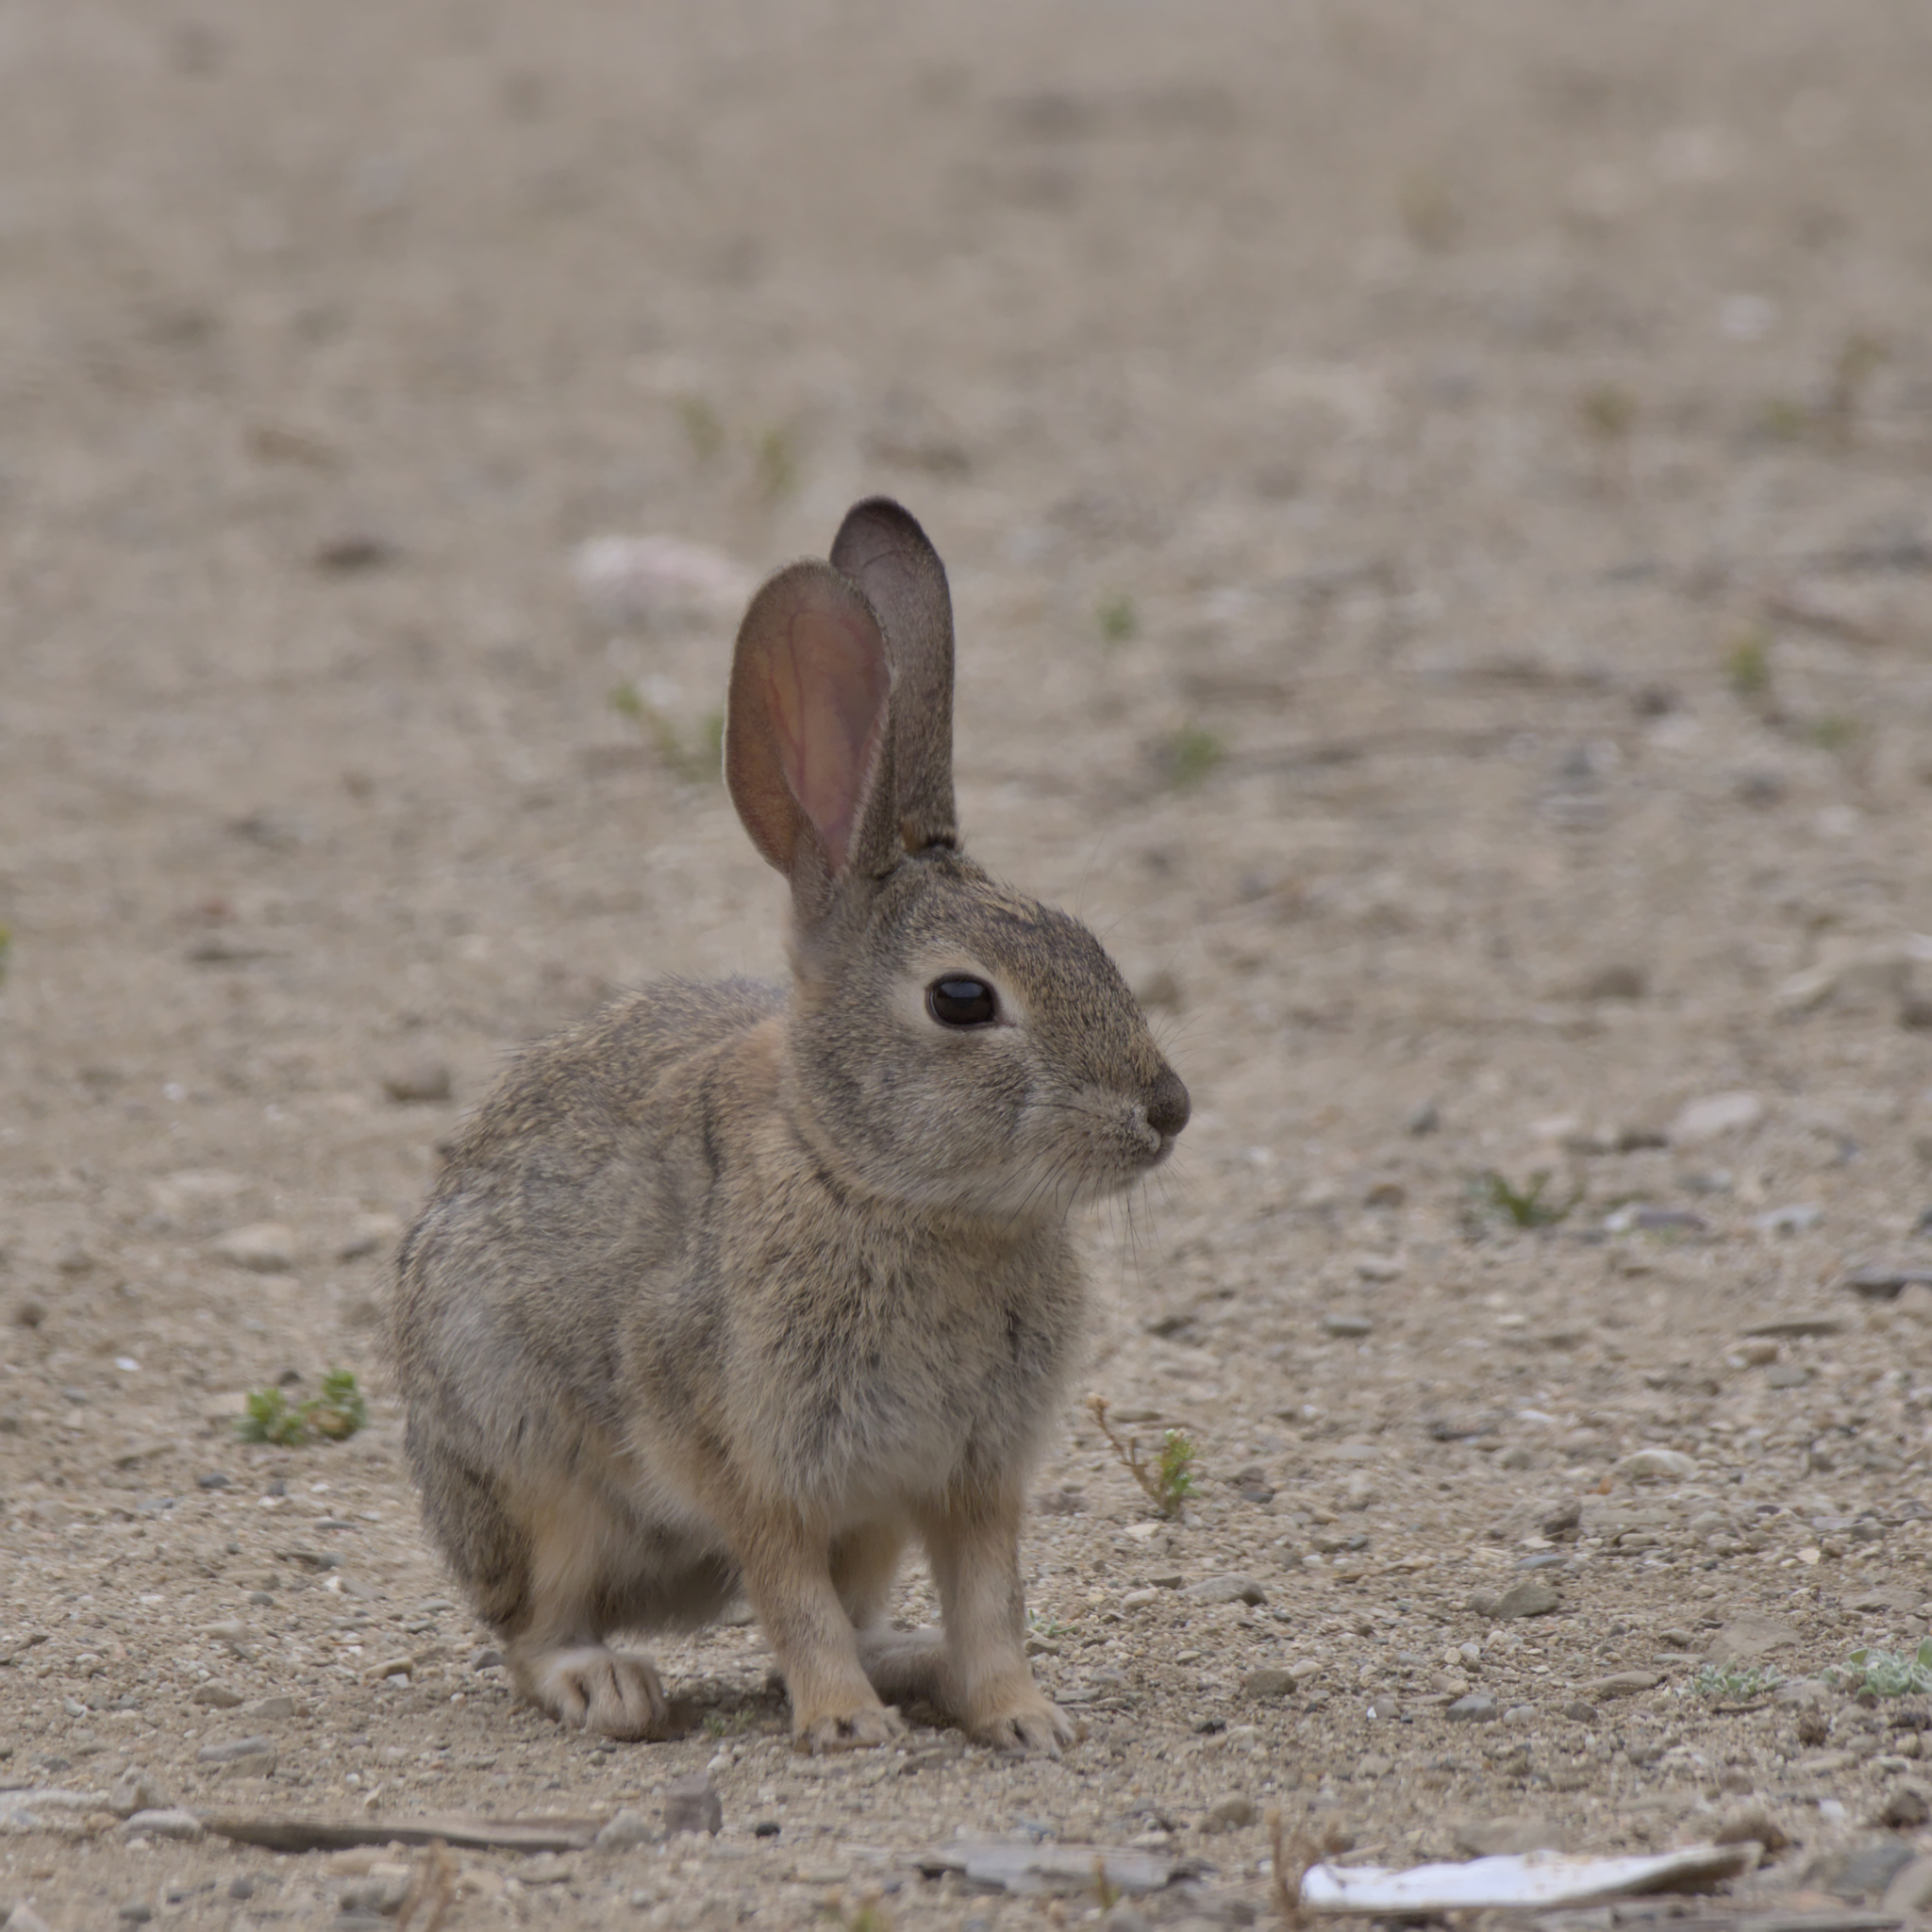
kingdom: Animalia
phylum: Chordata
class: Mammalia
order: Lagomorpha
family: Leporidae
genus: Sylvilagus
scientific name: Sylvilagus audubonii
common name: Desert cottontail
